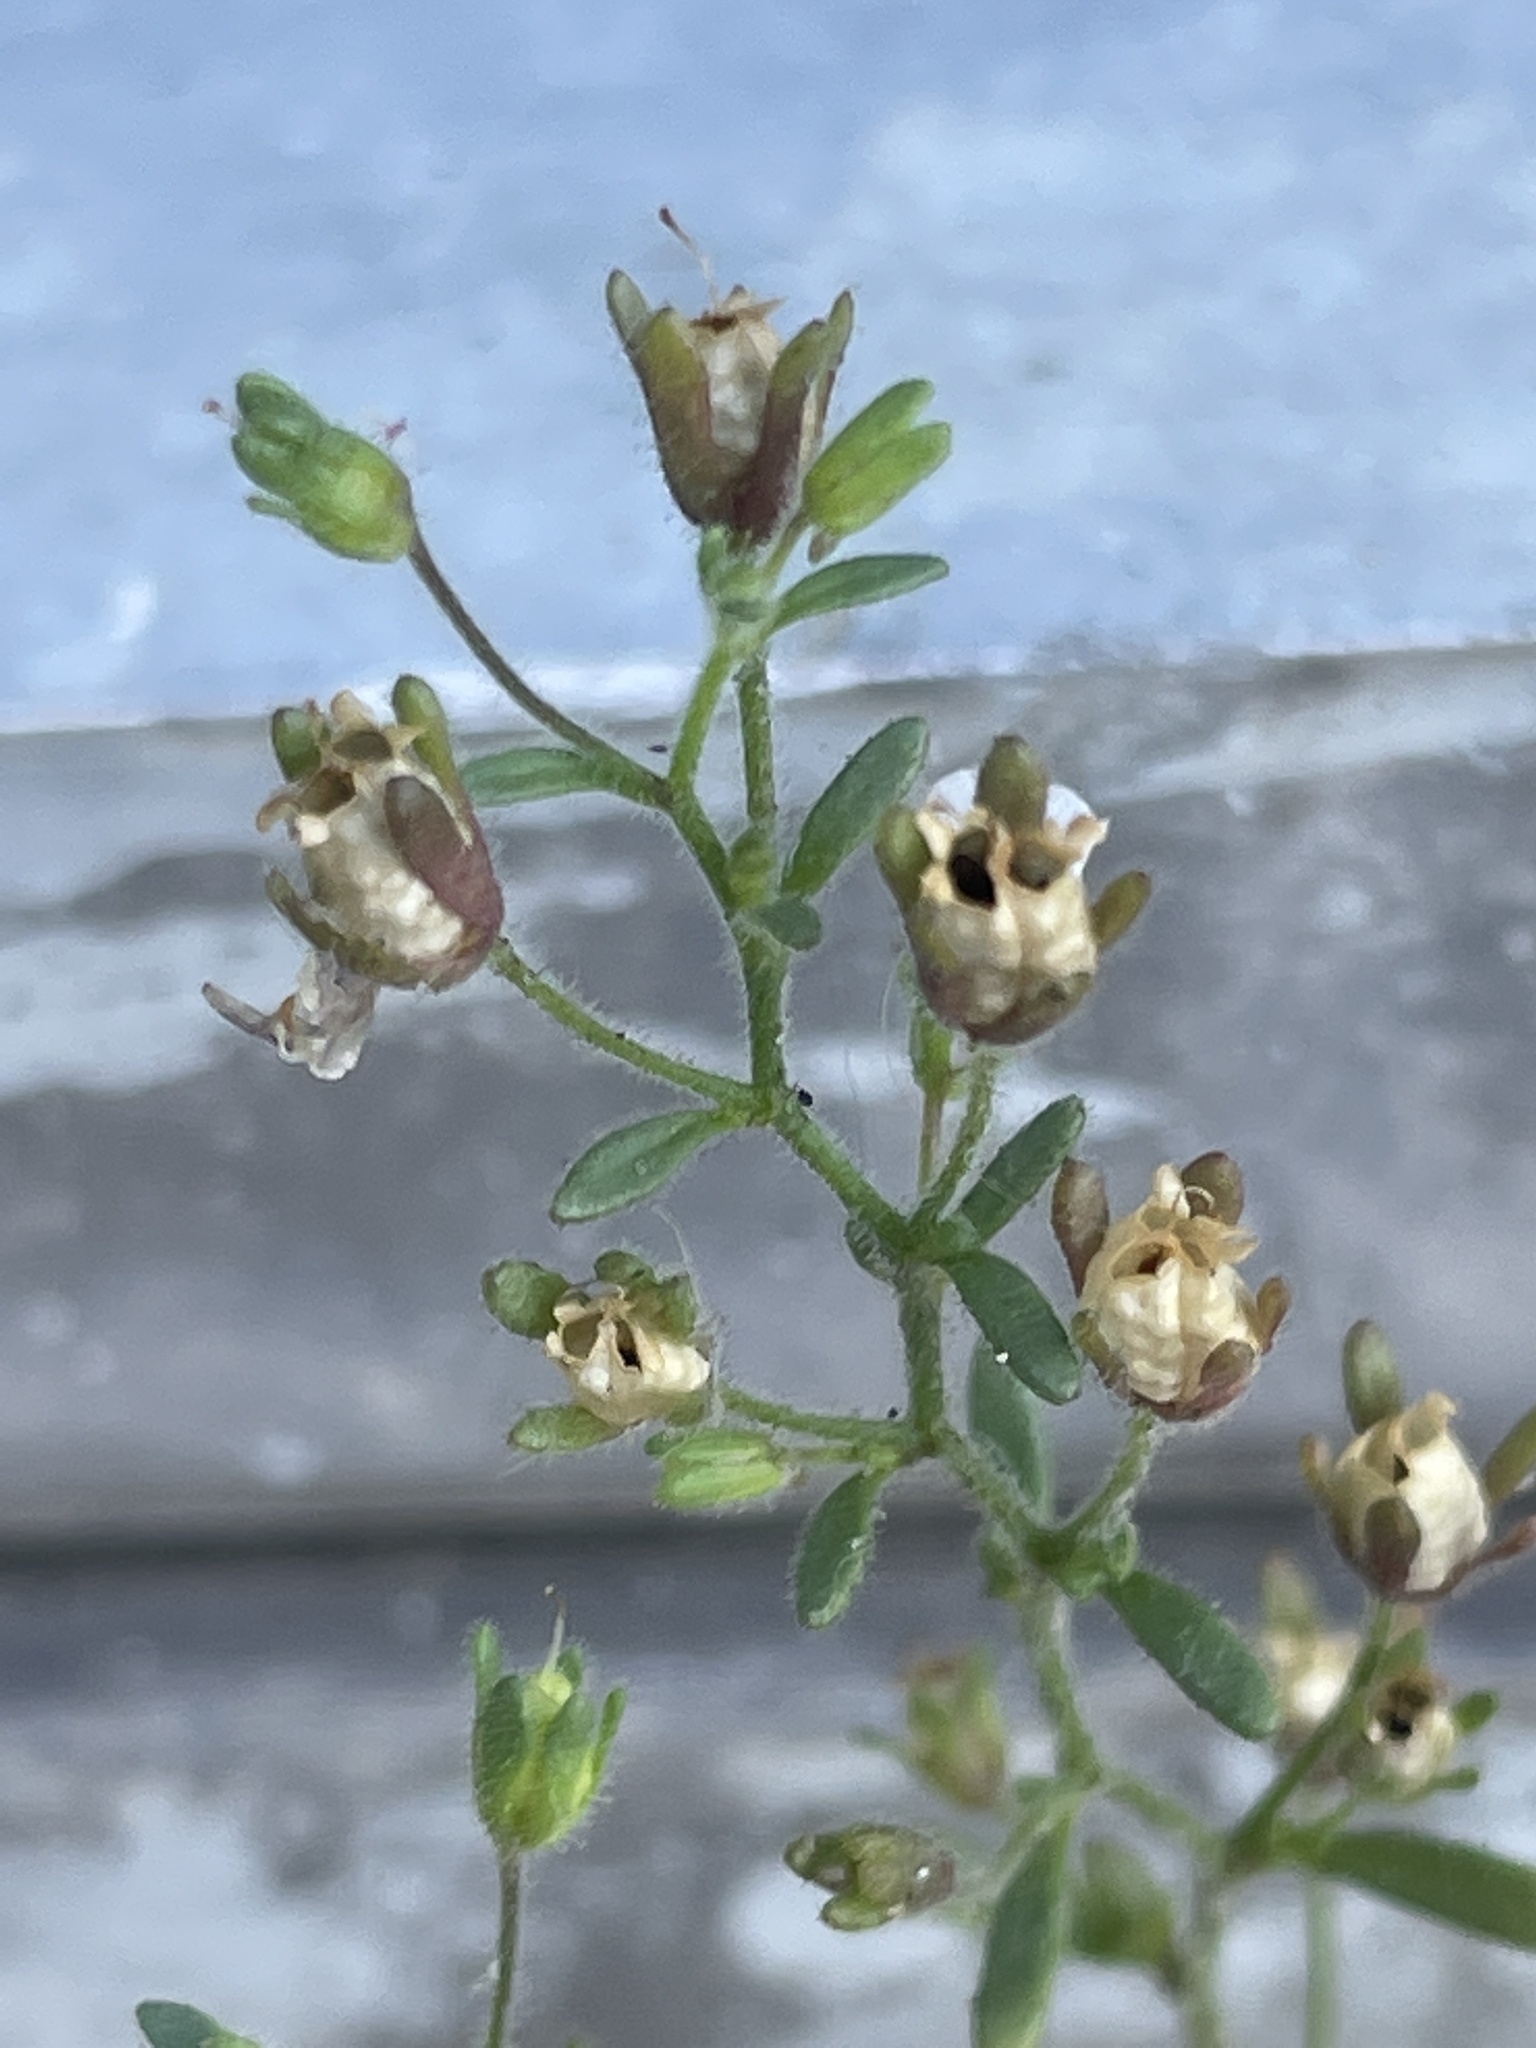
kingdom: Plantae
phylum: Tracheophyta
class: Magnoliopsida
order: Lamiales
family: Plantaginaceae
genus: Chaenorhinum
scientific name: Chaenorhinum minus
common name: Dwarf snapdragon
